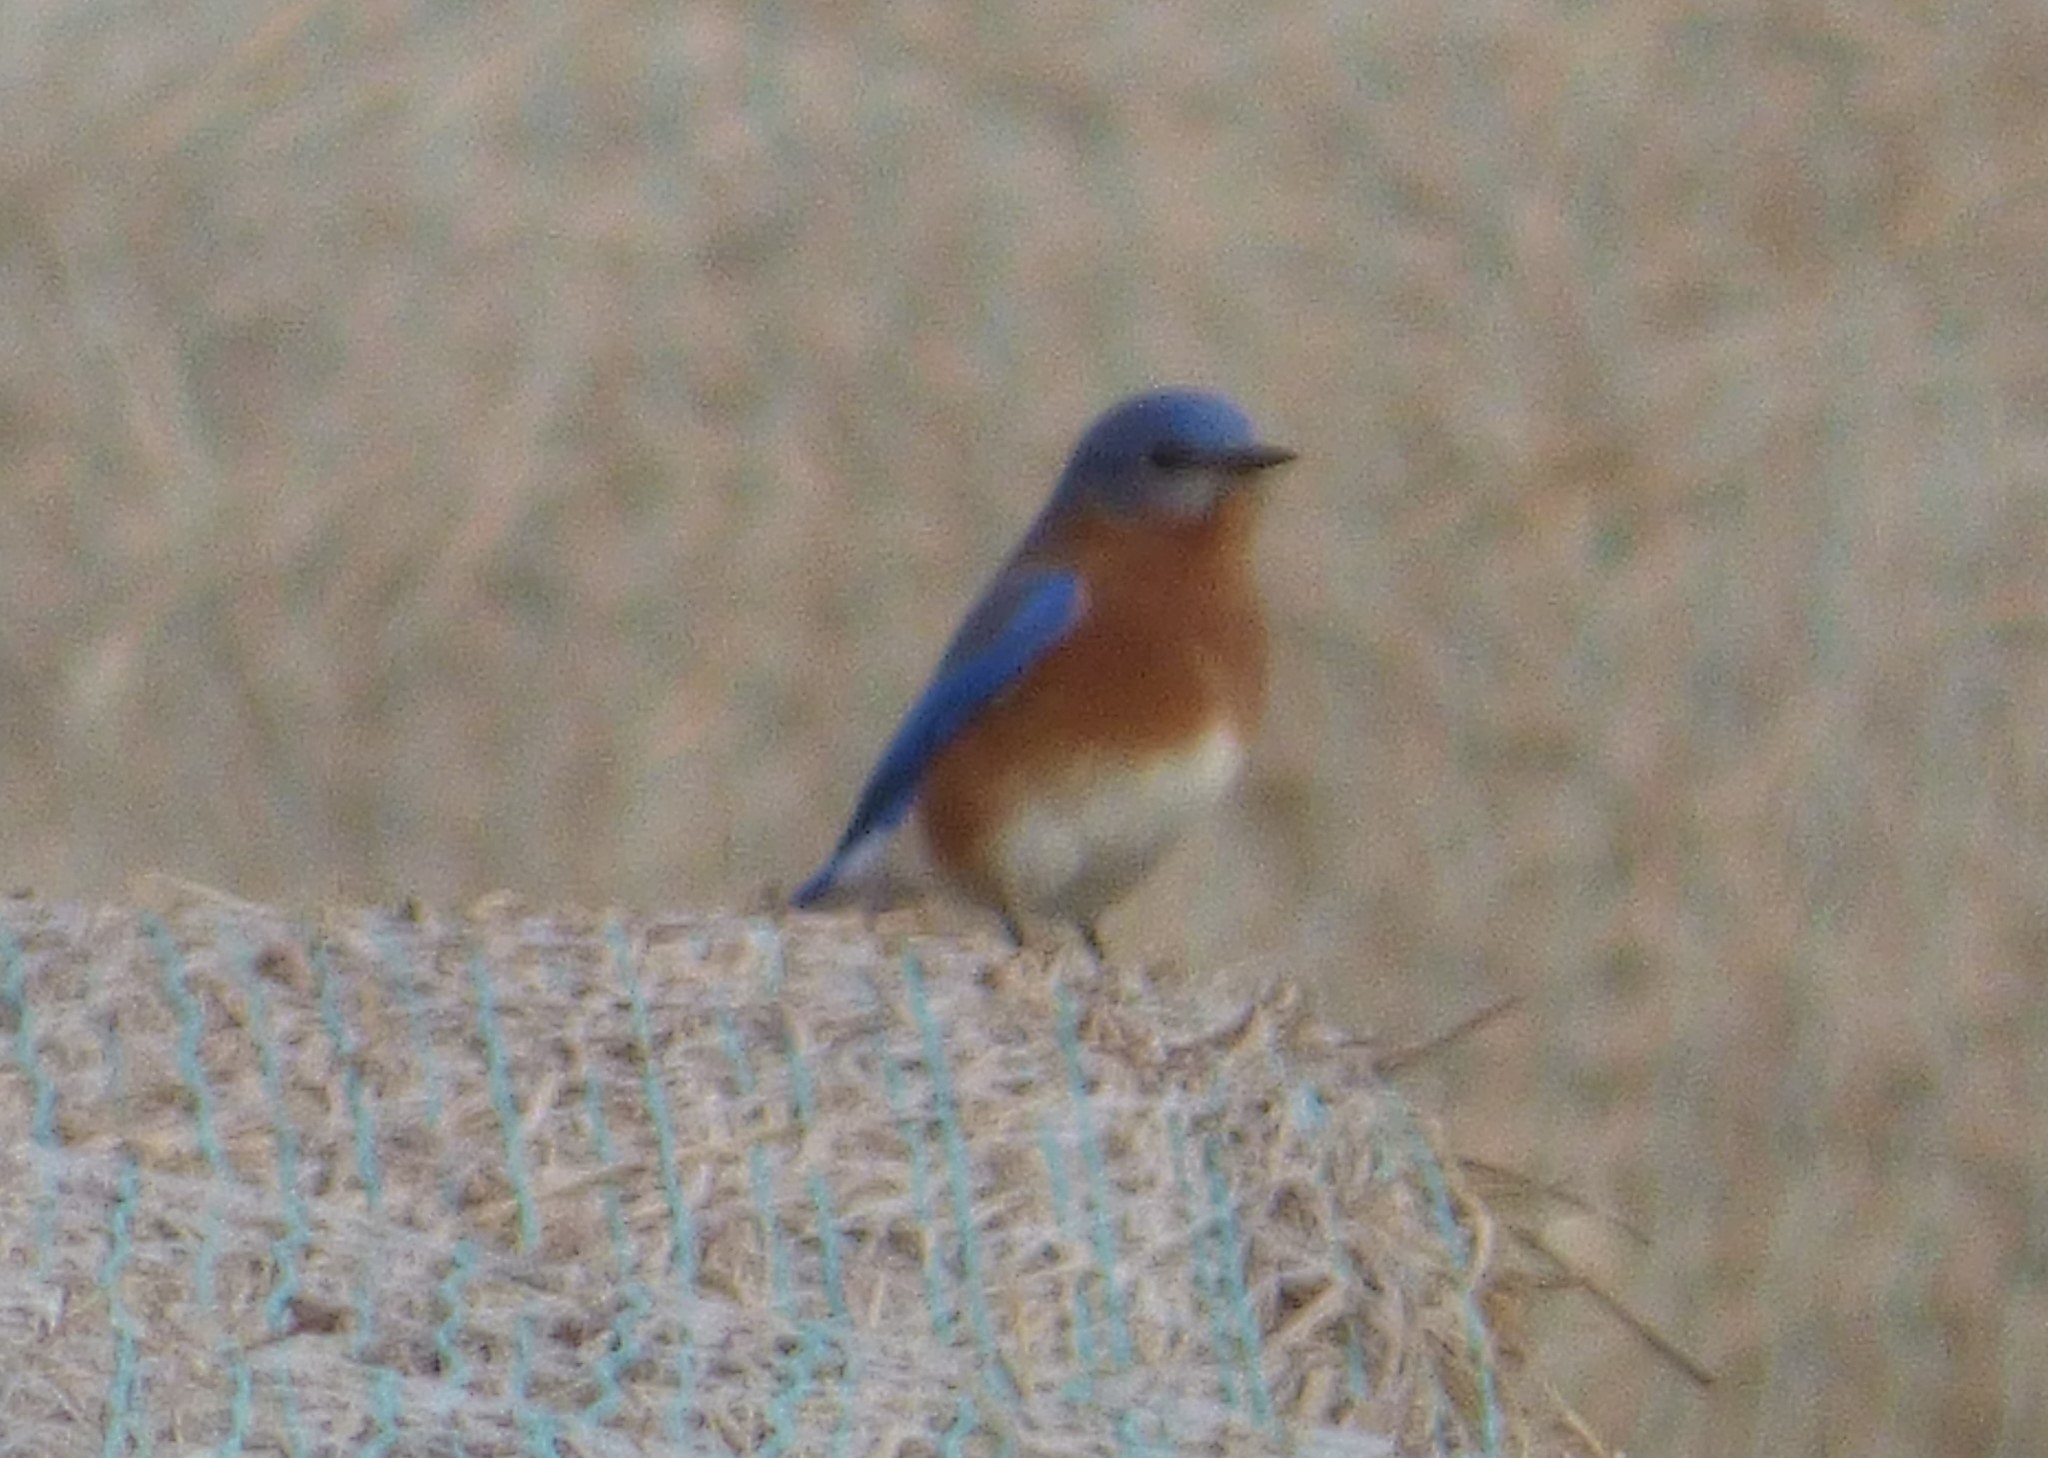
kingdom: Animalia
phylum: Chordata
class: Aves
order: Passeriformes
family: Turdidae
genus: Sialia
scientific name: Sialia sialis
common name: Eastern bluebird
